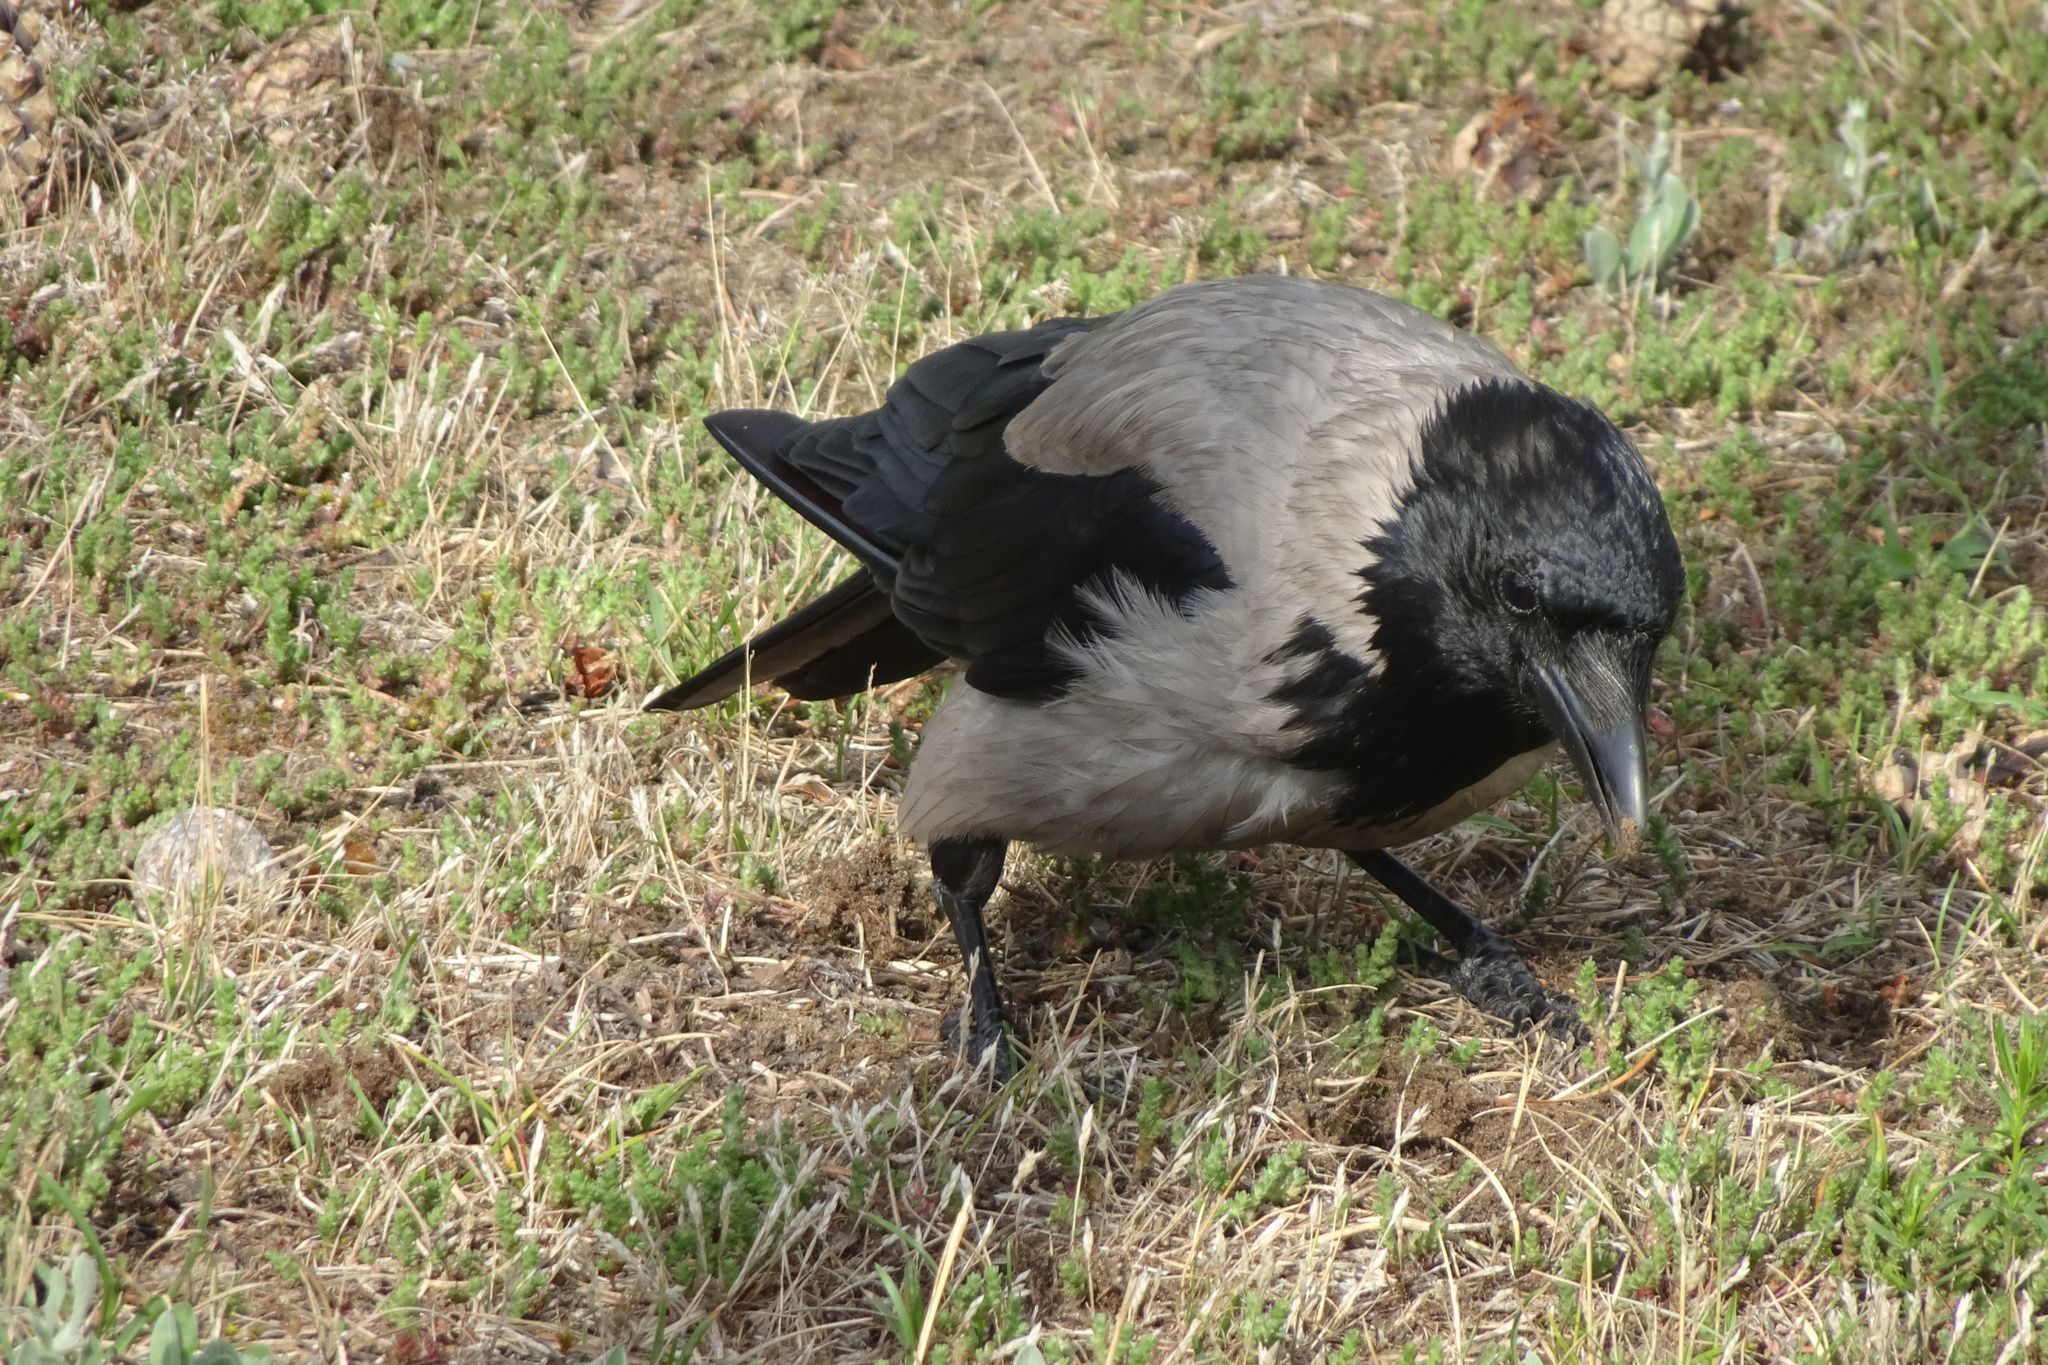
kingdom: Animalia
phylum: Chordata
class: Aves
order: Passeriformes
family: Corvidae
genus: Corvus
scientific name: Corvus cornix
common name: Hooded crow
